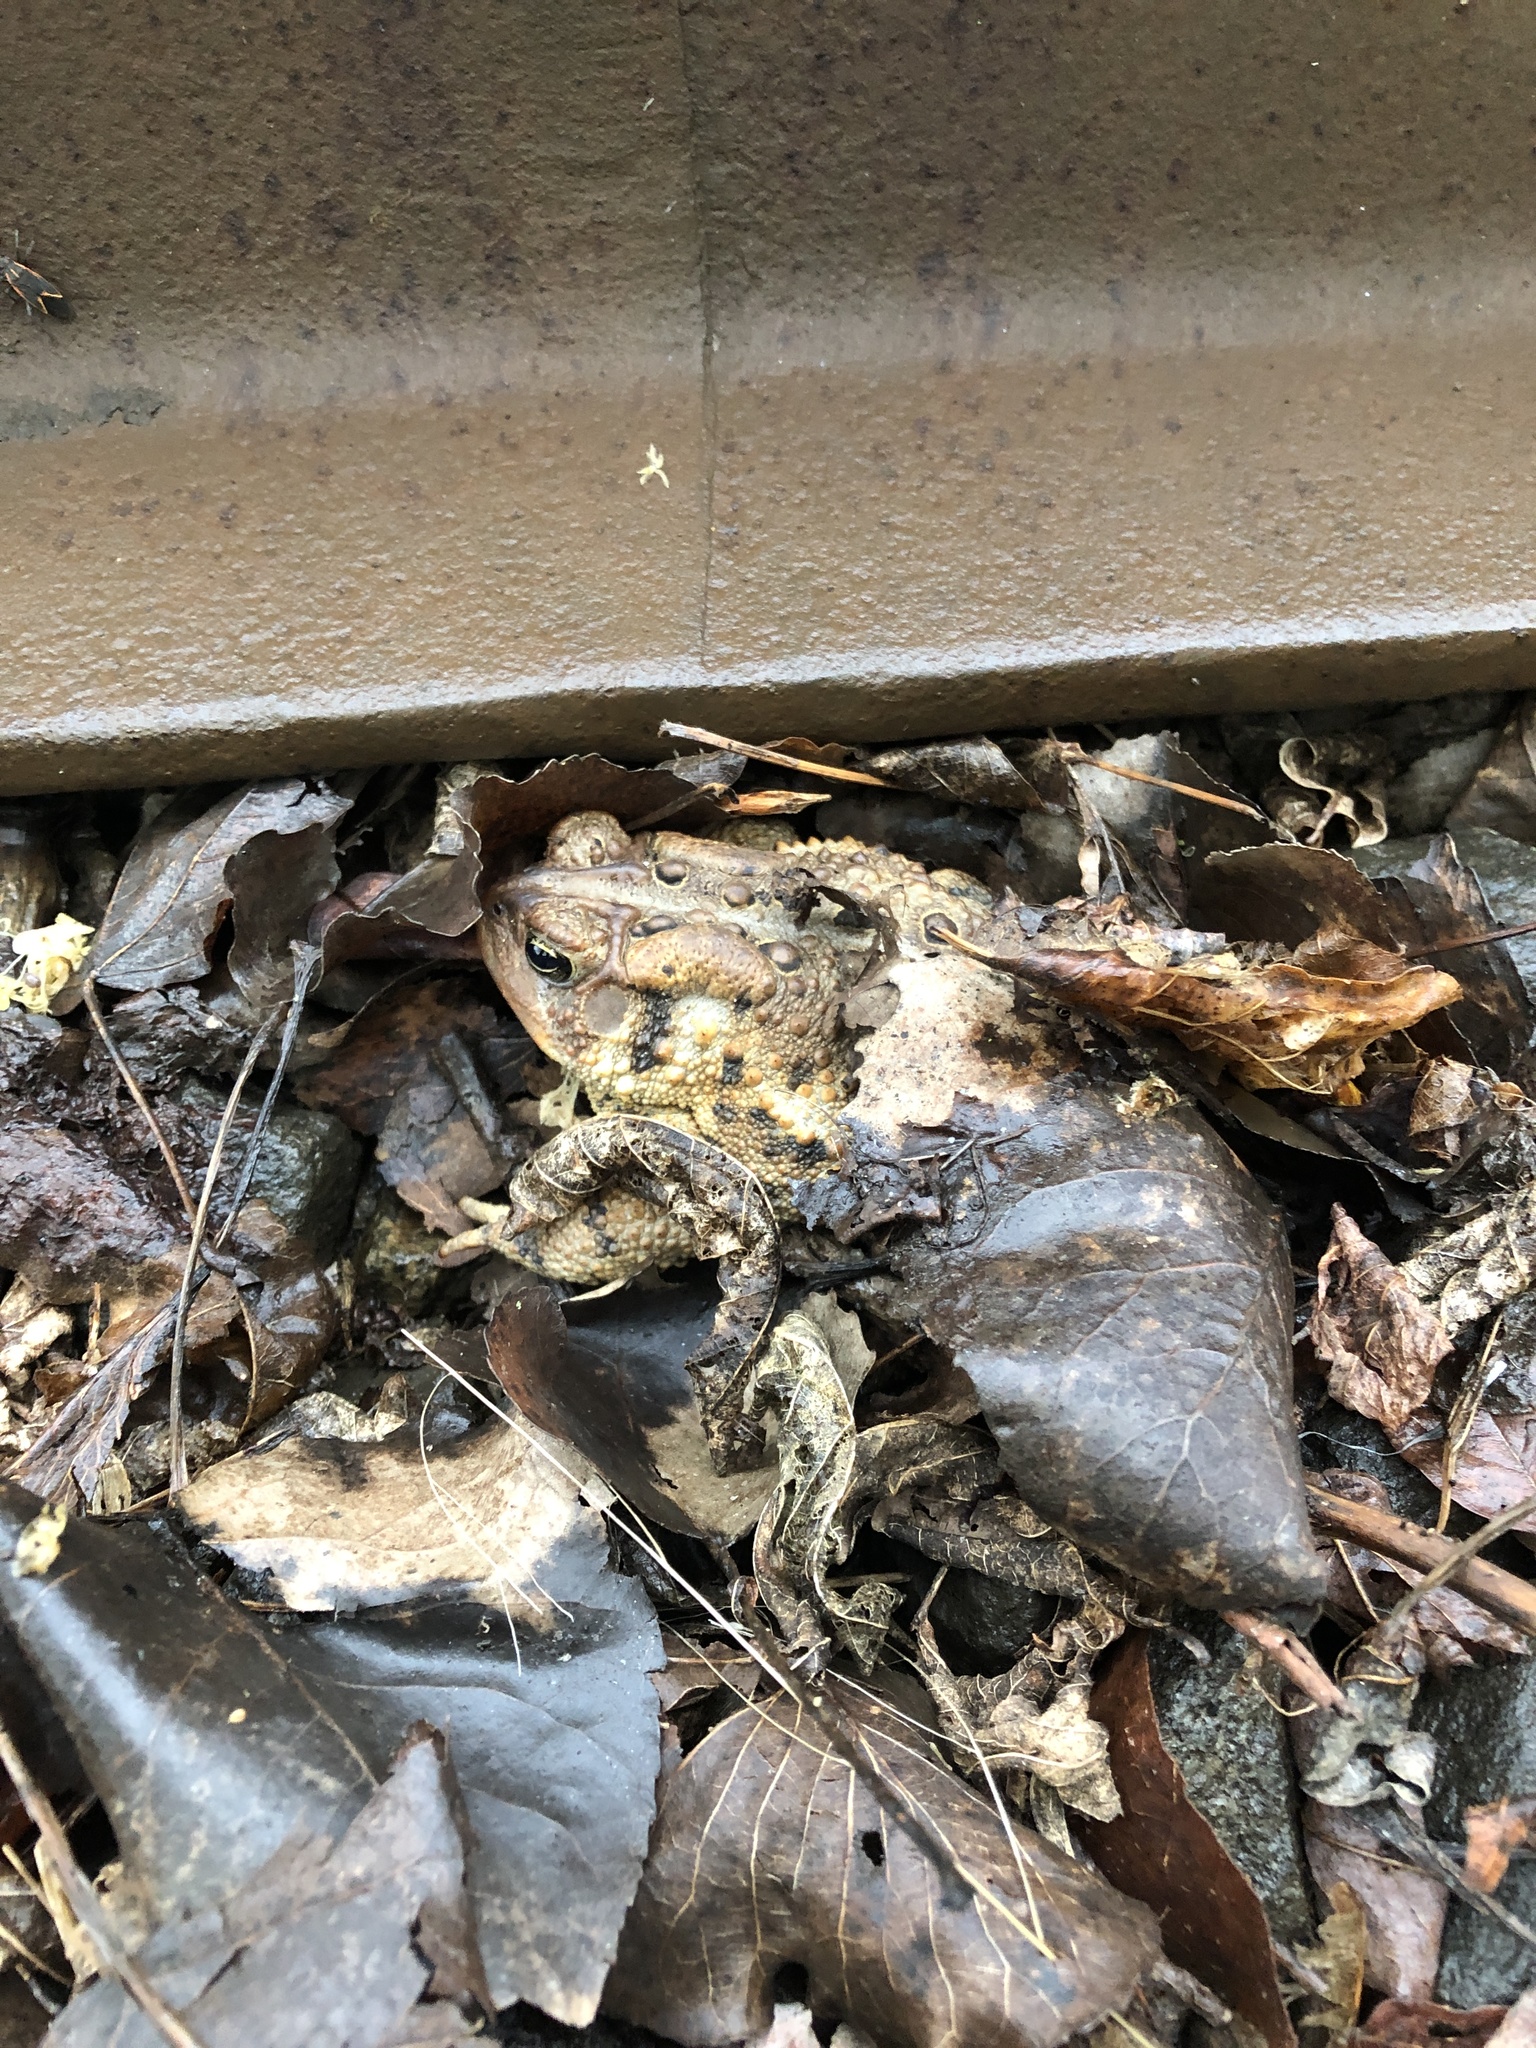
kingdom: Animalia
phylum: Chordata
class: Amphibia
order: Anura
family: Bufonidae
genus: Anaxyrus
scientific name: Anaxyrus americanus
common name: American toad
